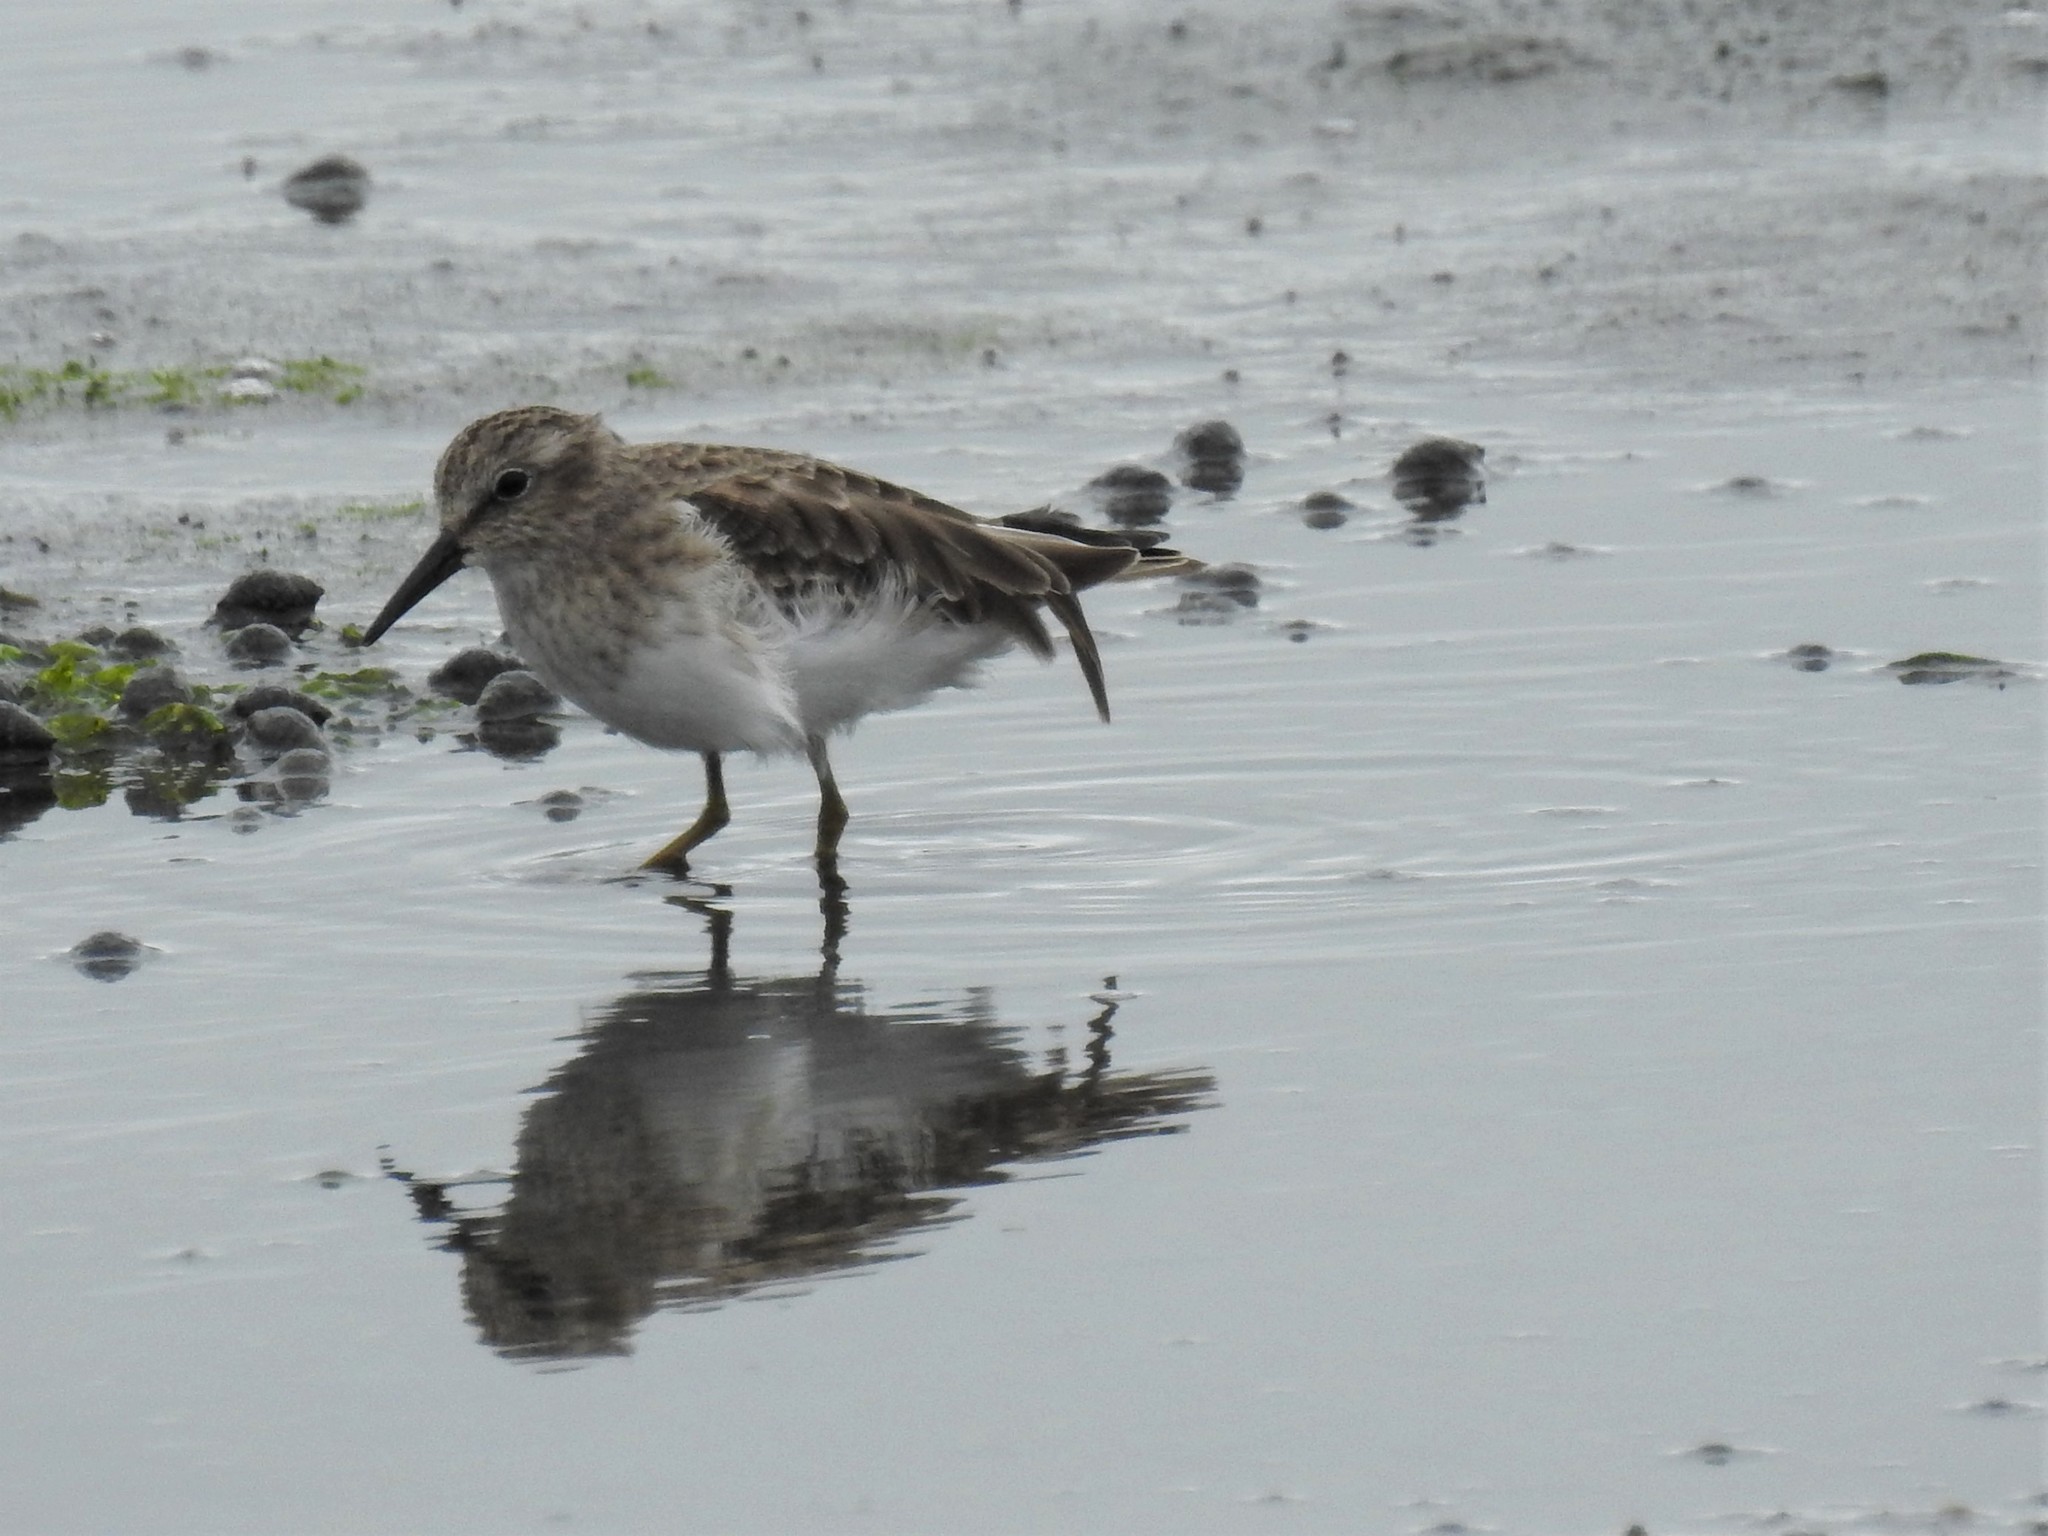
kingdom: Animalia
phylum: Chordata
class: Aves
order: Charadriiformes
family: Scolopacidae
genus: Calidris
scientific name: Calidris minutilla
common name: Least sandpiper
